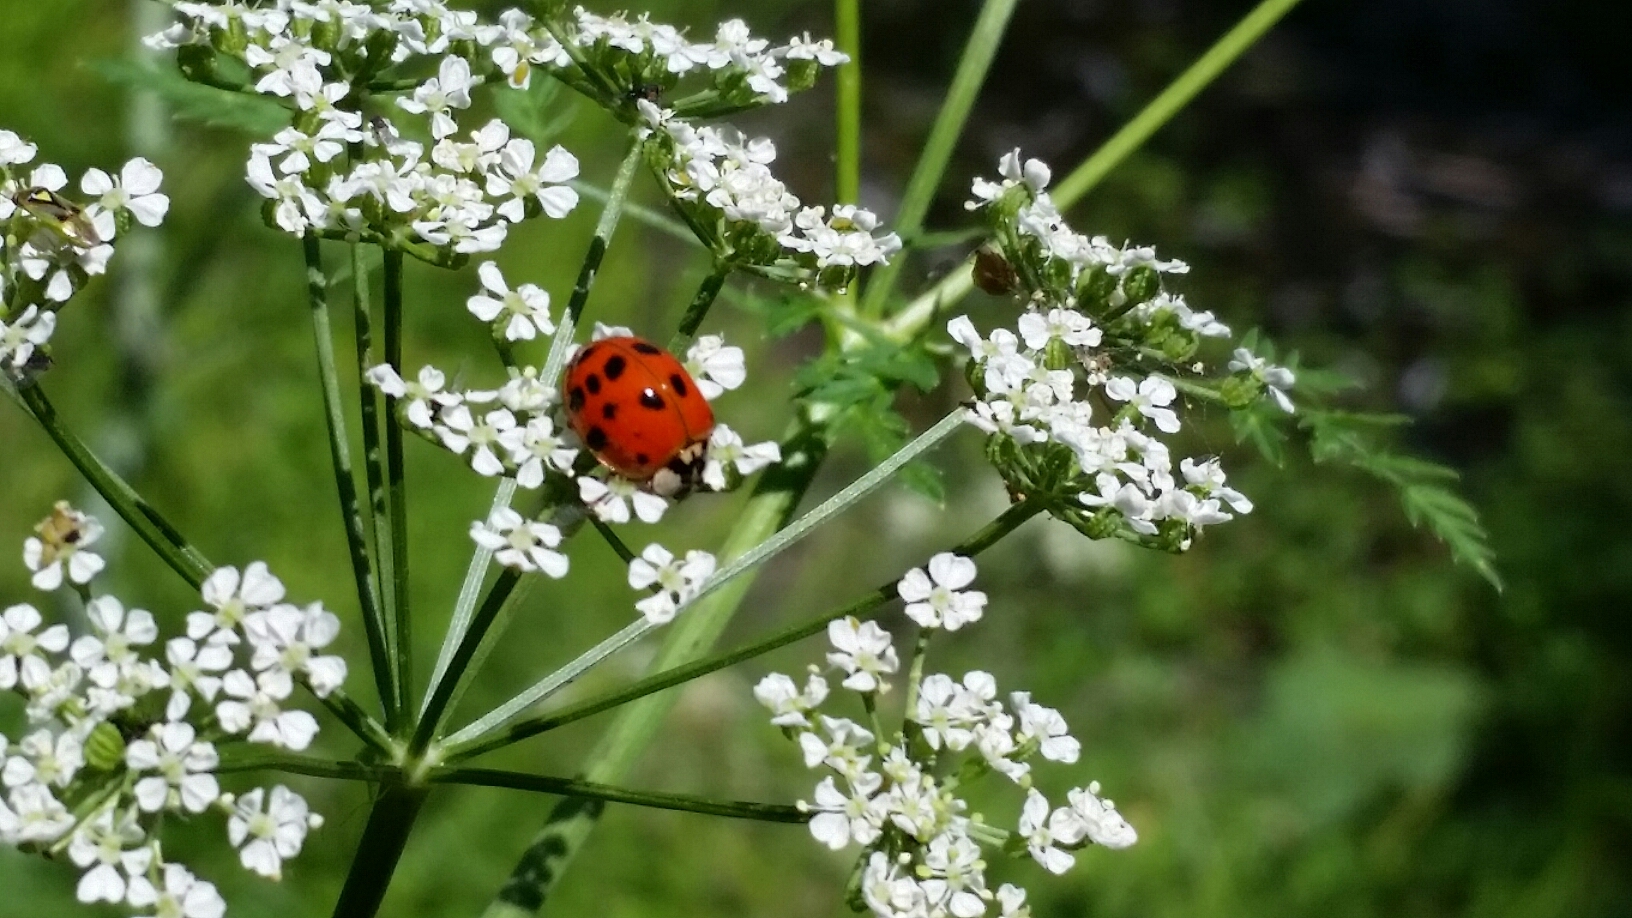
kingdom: Animalia
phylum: Arthropoda
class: Insecta
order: Coleoptera
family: Coccinellidae
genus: Harmonia
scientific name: Harmonia axyridis
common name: Harlequin ladybird
